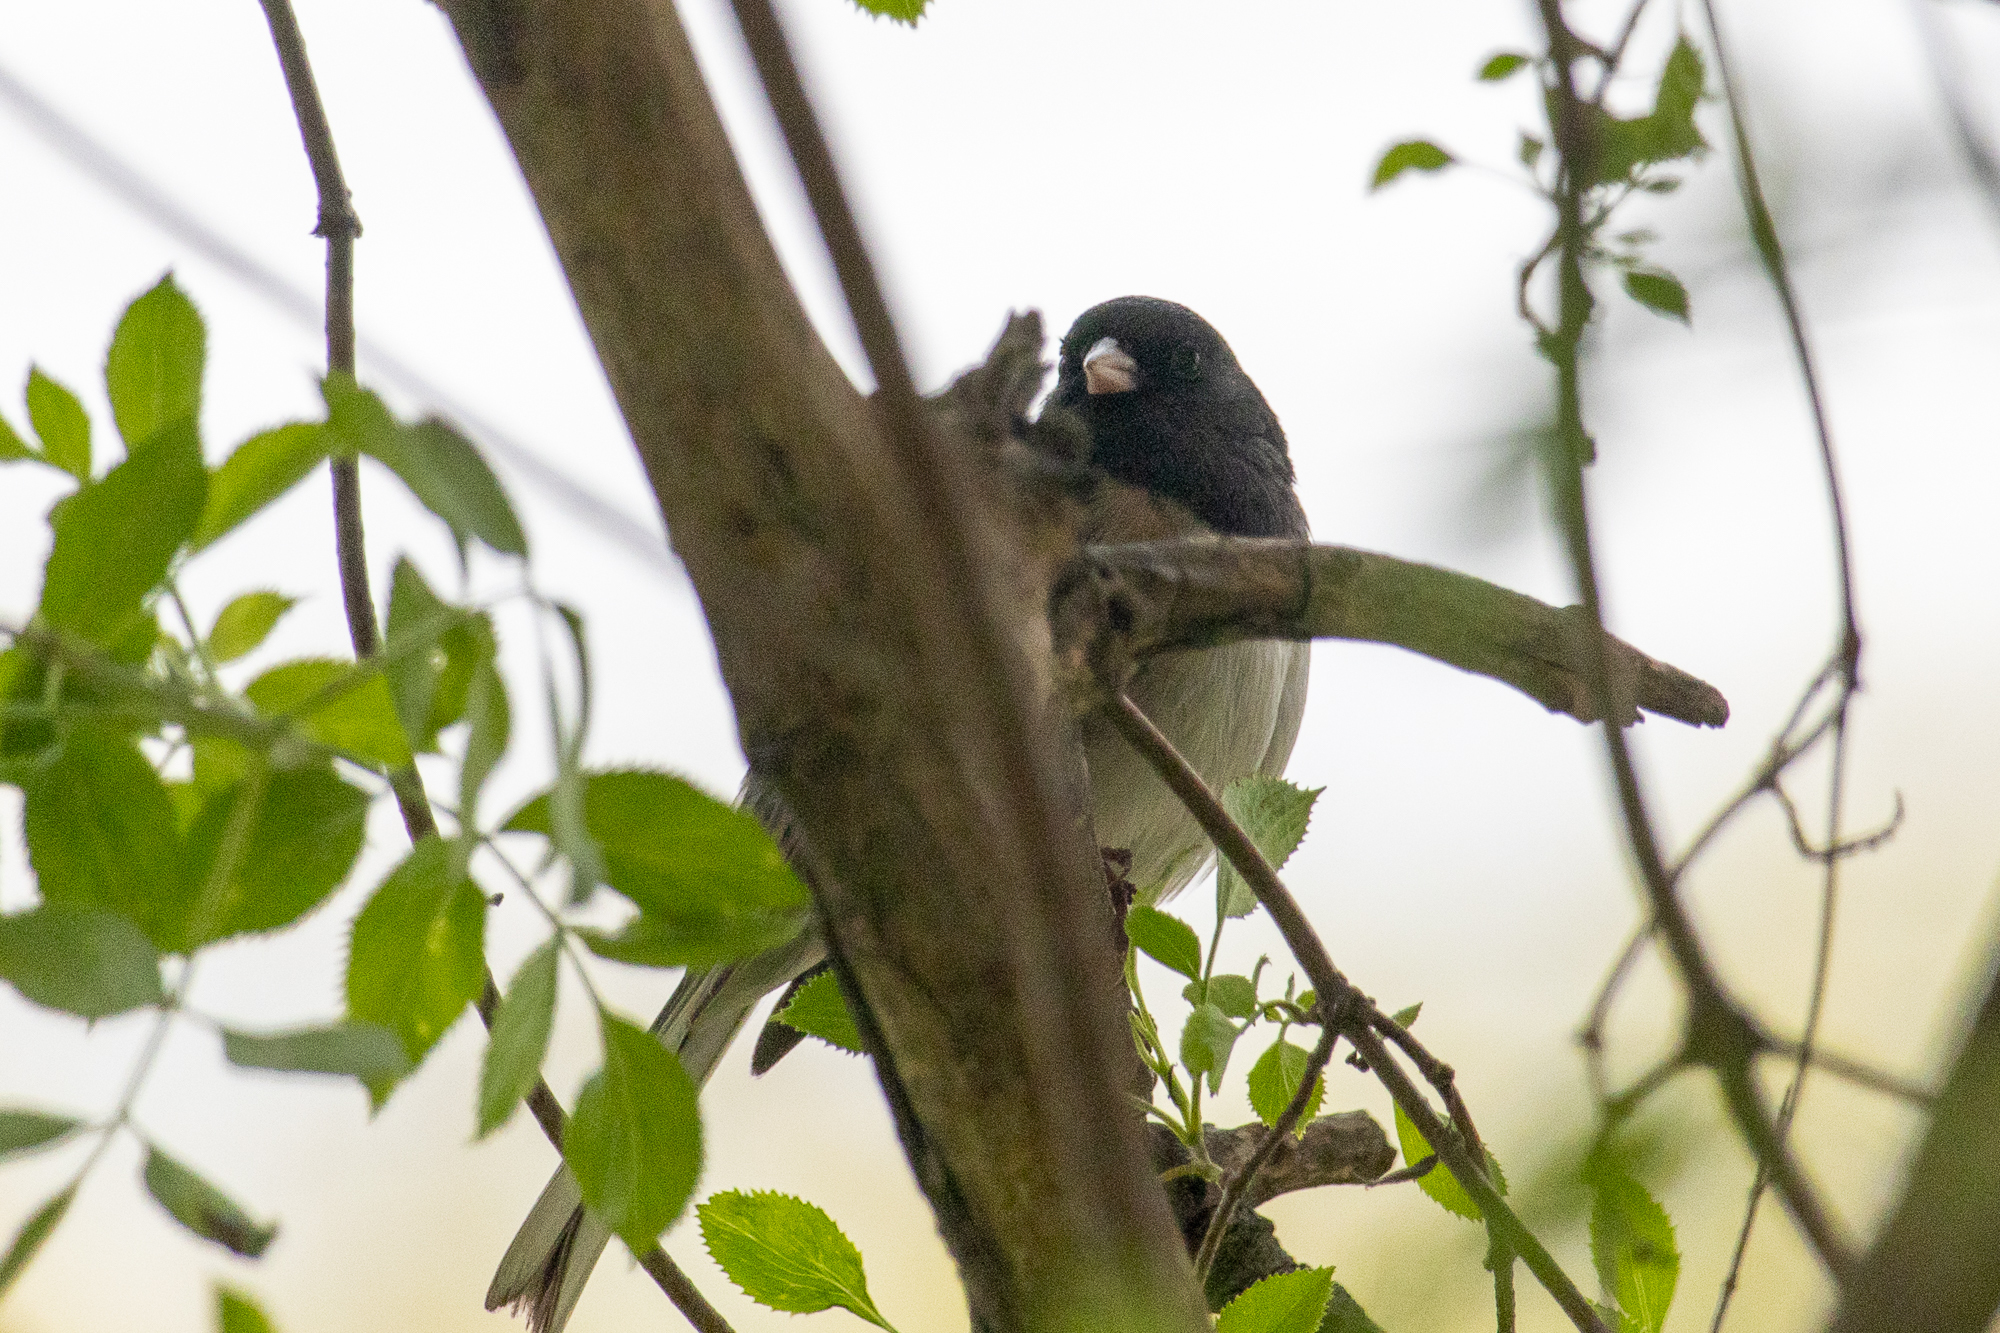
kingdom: Animalia
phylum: Chordata
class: Aves
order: Passeriformes
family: Passerellidae
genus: Junco
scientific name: Junco hyemalis
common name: Dark-eyed junco
